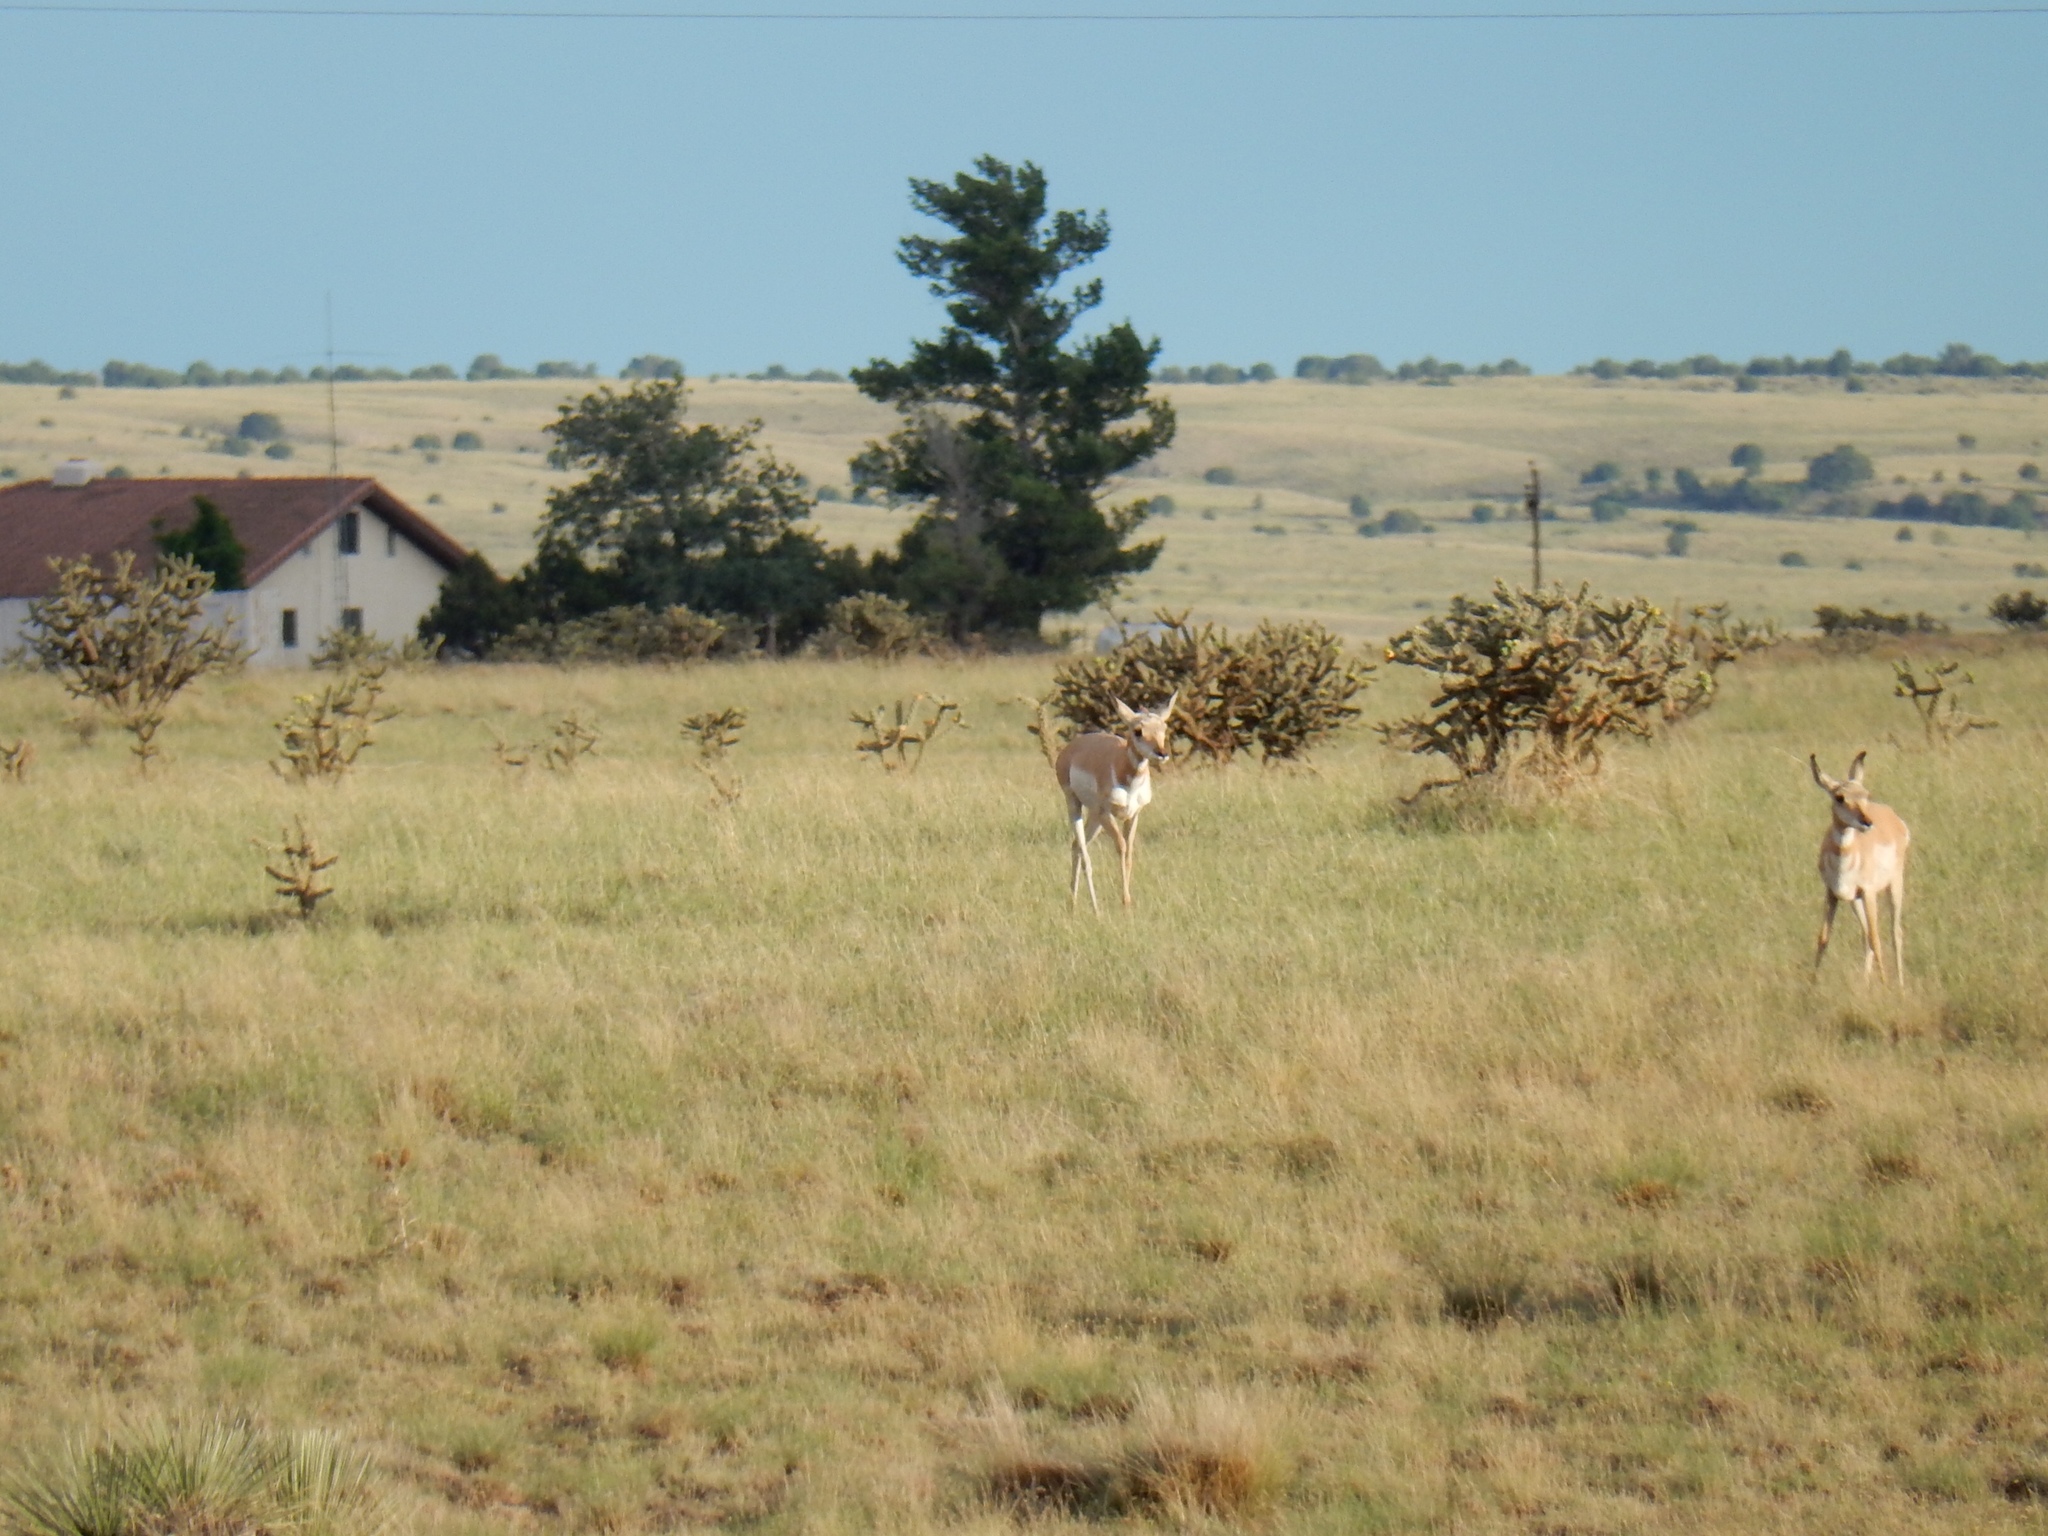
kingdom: Animalia
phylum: Chordata
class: Mammalia
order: Artiodactyla
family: Antilocapridae
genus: Antilocapra
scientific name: Antilocapra americana
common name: Pronghorn
